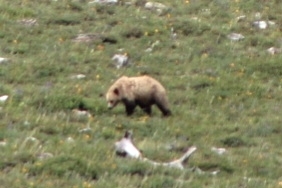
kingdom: Animalia
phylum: Chordata
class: Mammalia
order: Carnivora
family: Ursidae
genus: Ursus
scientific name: Ursus arctos
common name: Brown bear
